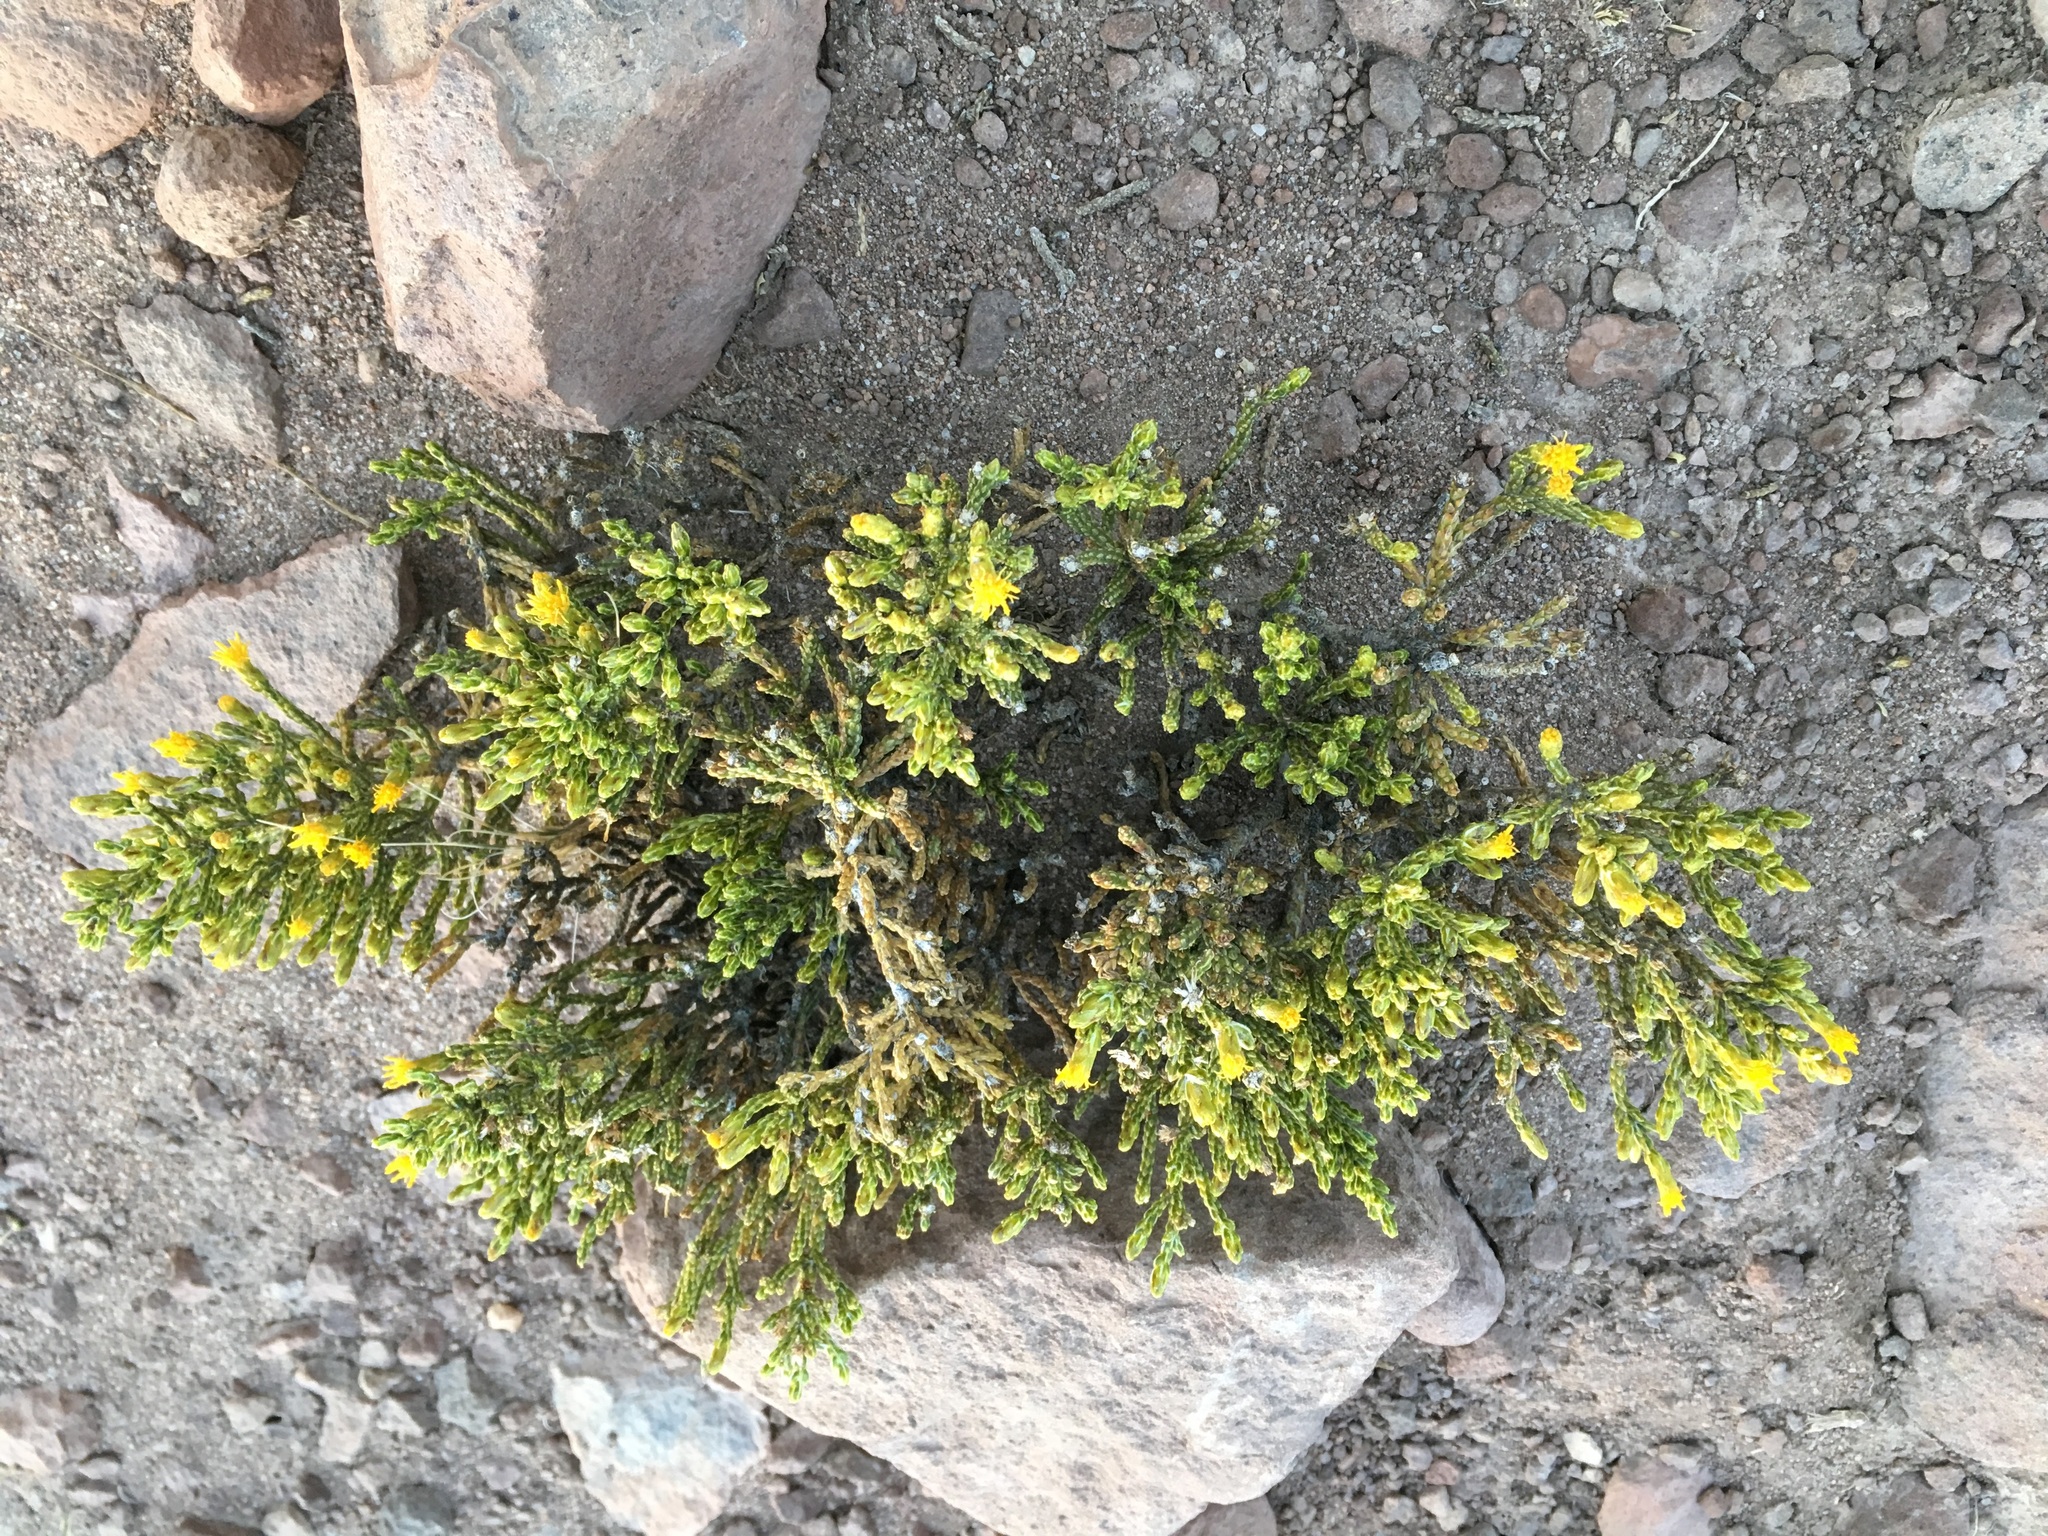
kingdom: Plantae
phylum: Tracheophyta
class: Magnoliopsida
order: Asterales
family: Asteraceae
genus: Parastrephia
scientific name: Parastrephia quadrangularis
